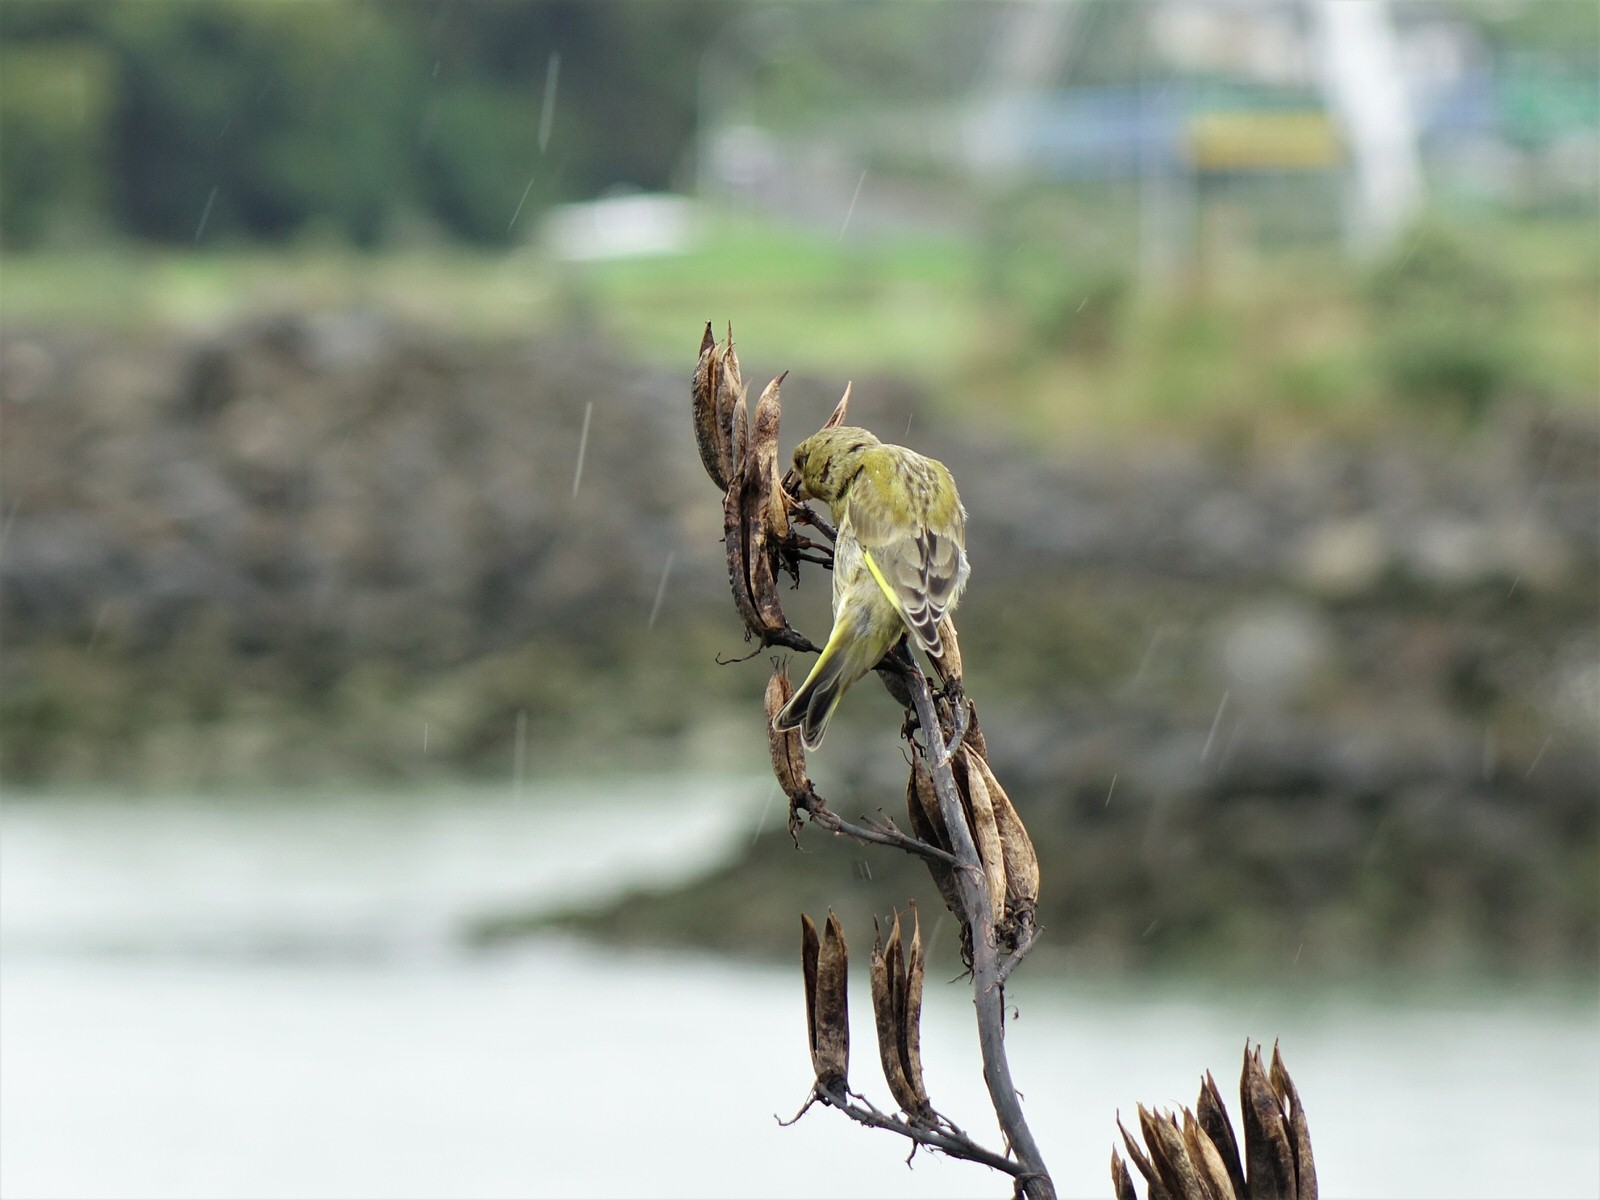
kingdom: Plantae
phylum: Tracheophyta
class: Liliopsida
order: Poales
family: Poaceae
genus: Chloris
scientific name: Chloris chloris
